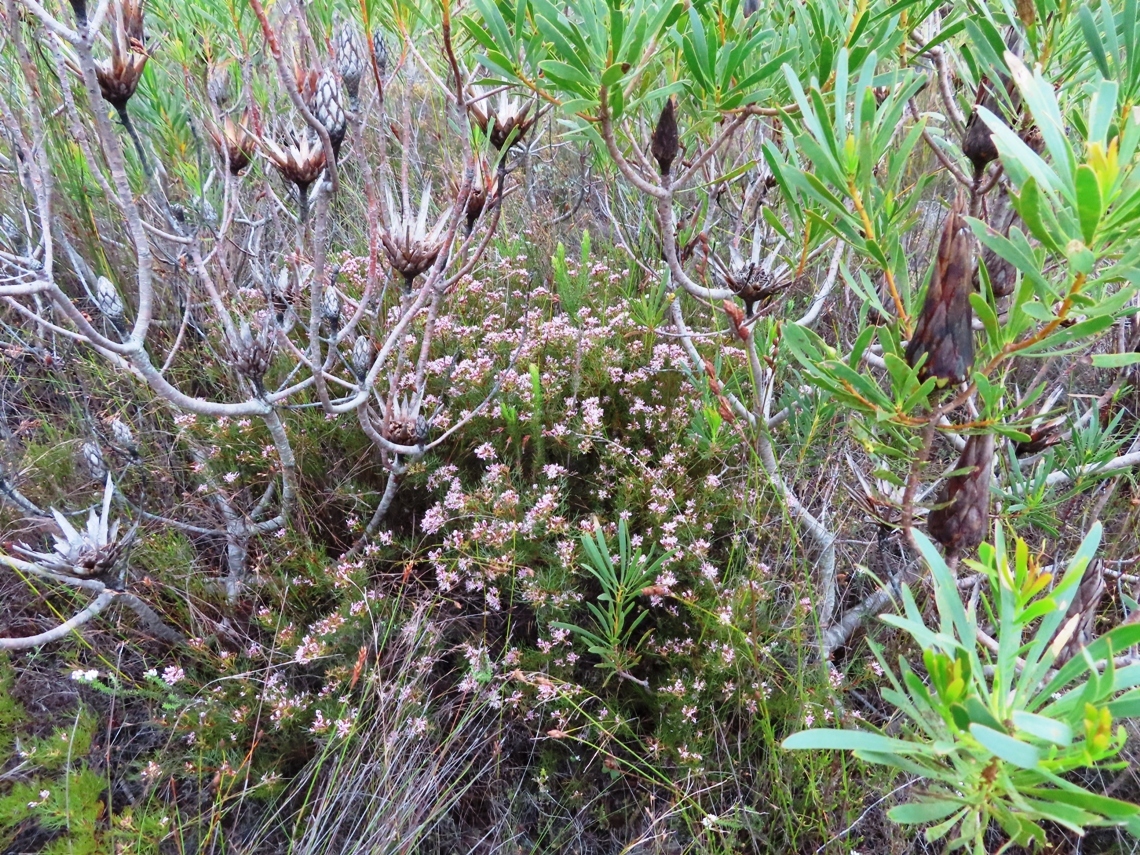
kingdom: Plantae
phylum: Tracheophyta
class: Magnoliopsida
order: Proteales
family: Proteaceae
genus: Serruria
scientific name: Serruria bolusii
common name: Agulhas spiderhead
